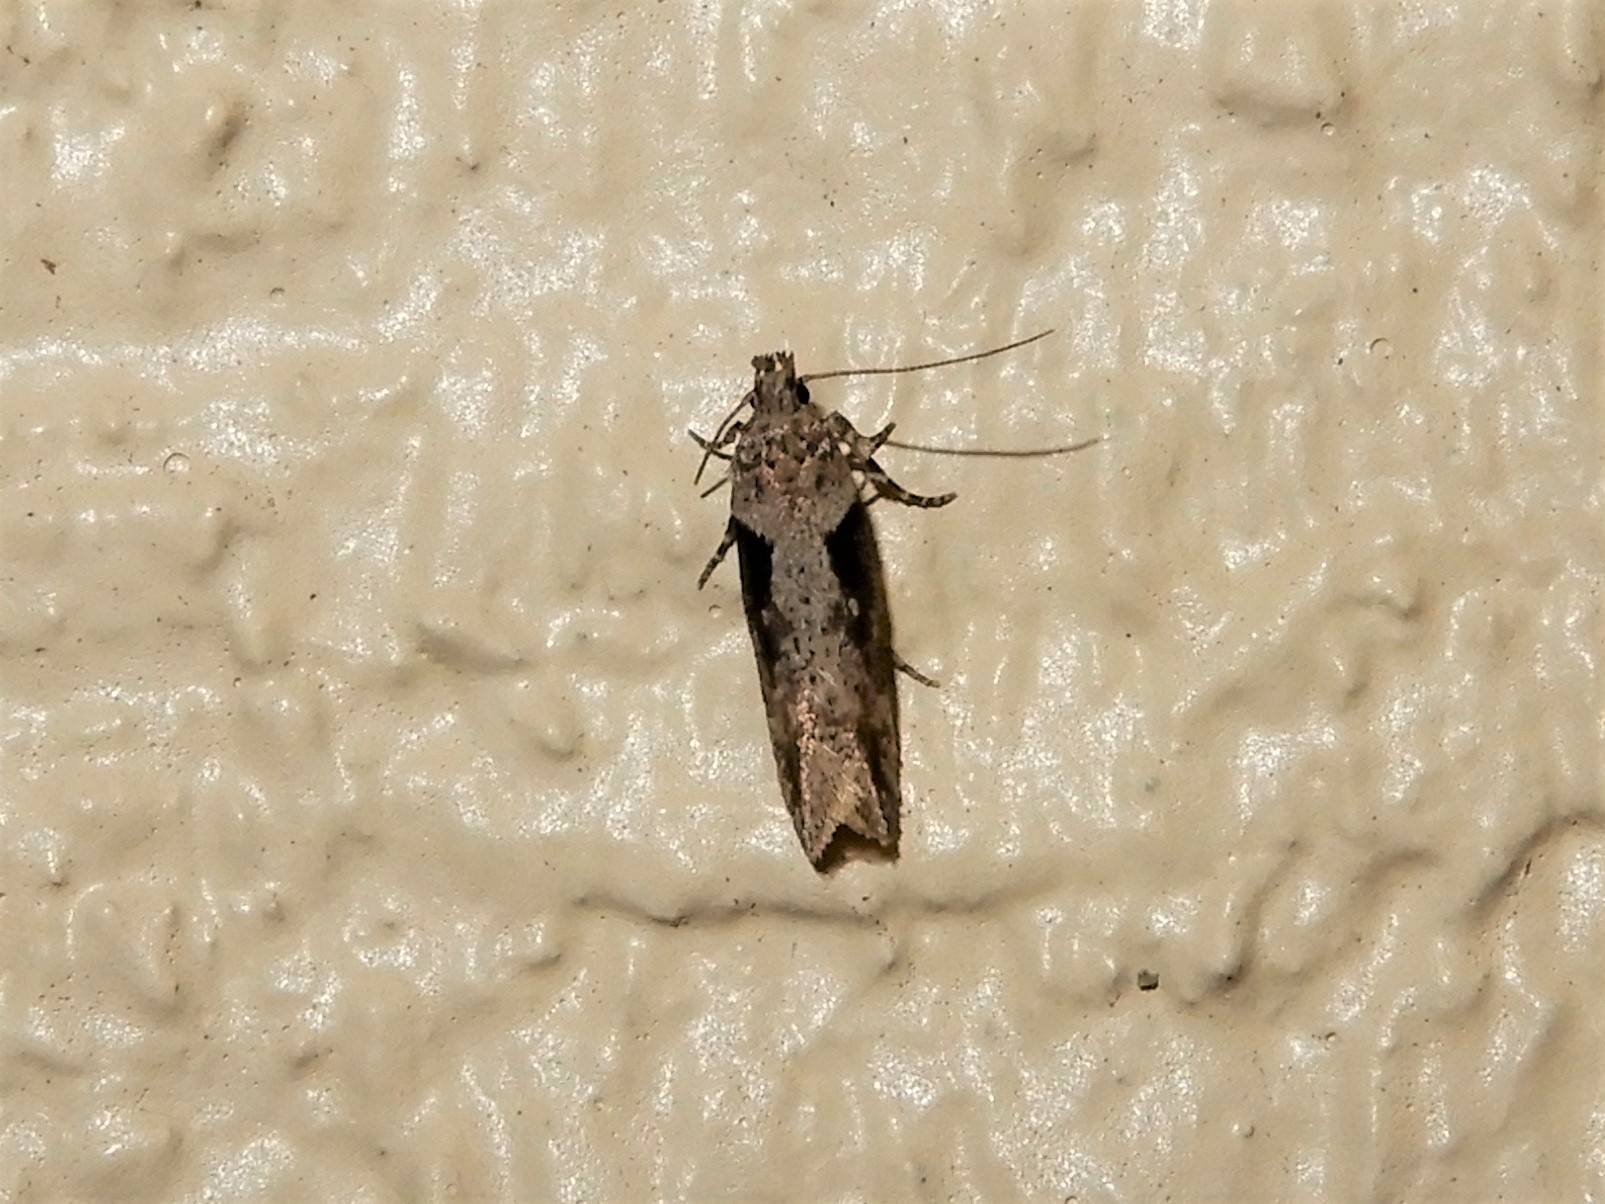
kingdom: Animalia
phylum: Arthropoda
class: Insecta
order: Lepidoptera
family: Gelechiidae
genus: Symmetrischema
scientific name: Symmetrischema tangolias
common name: Moth
